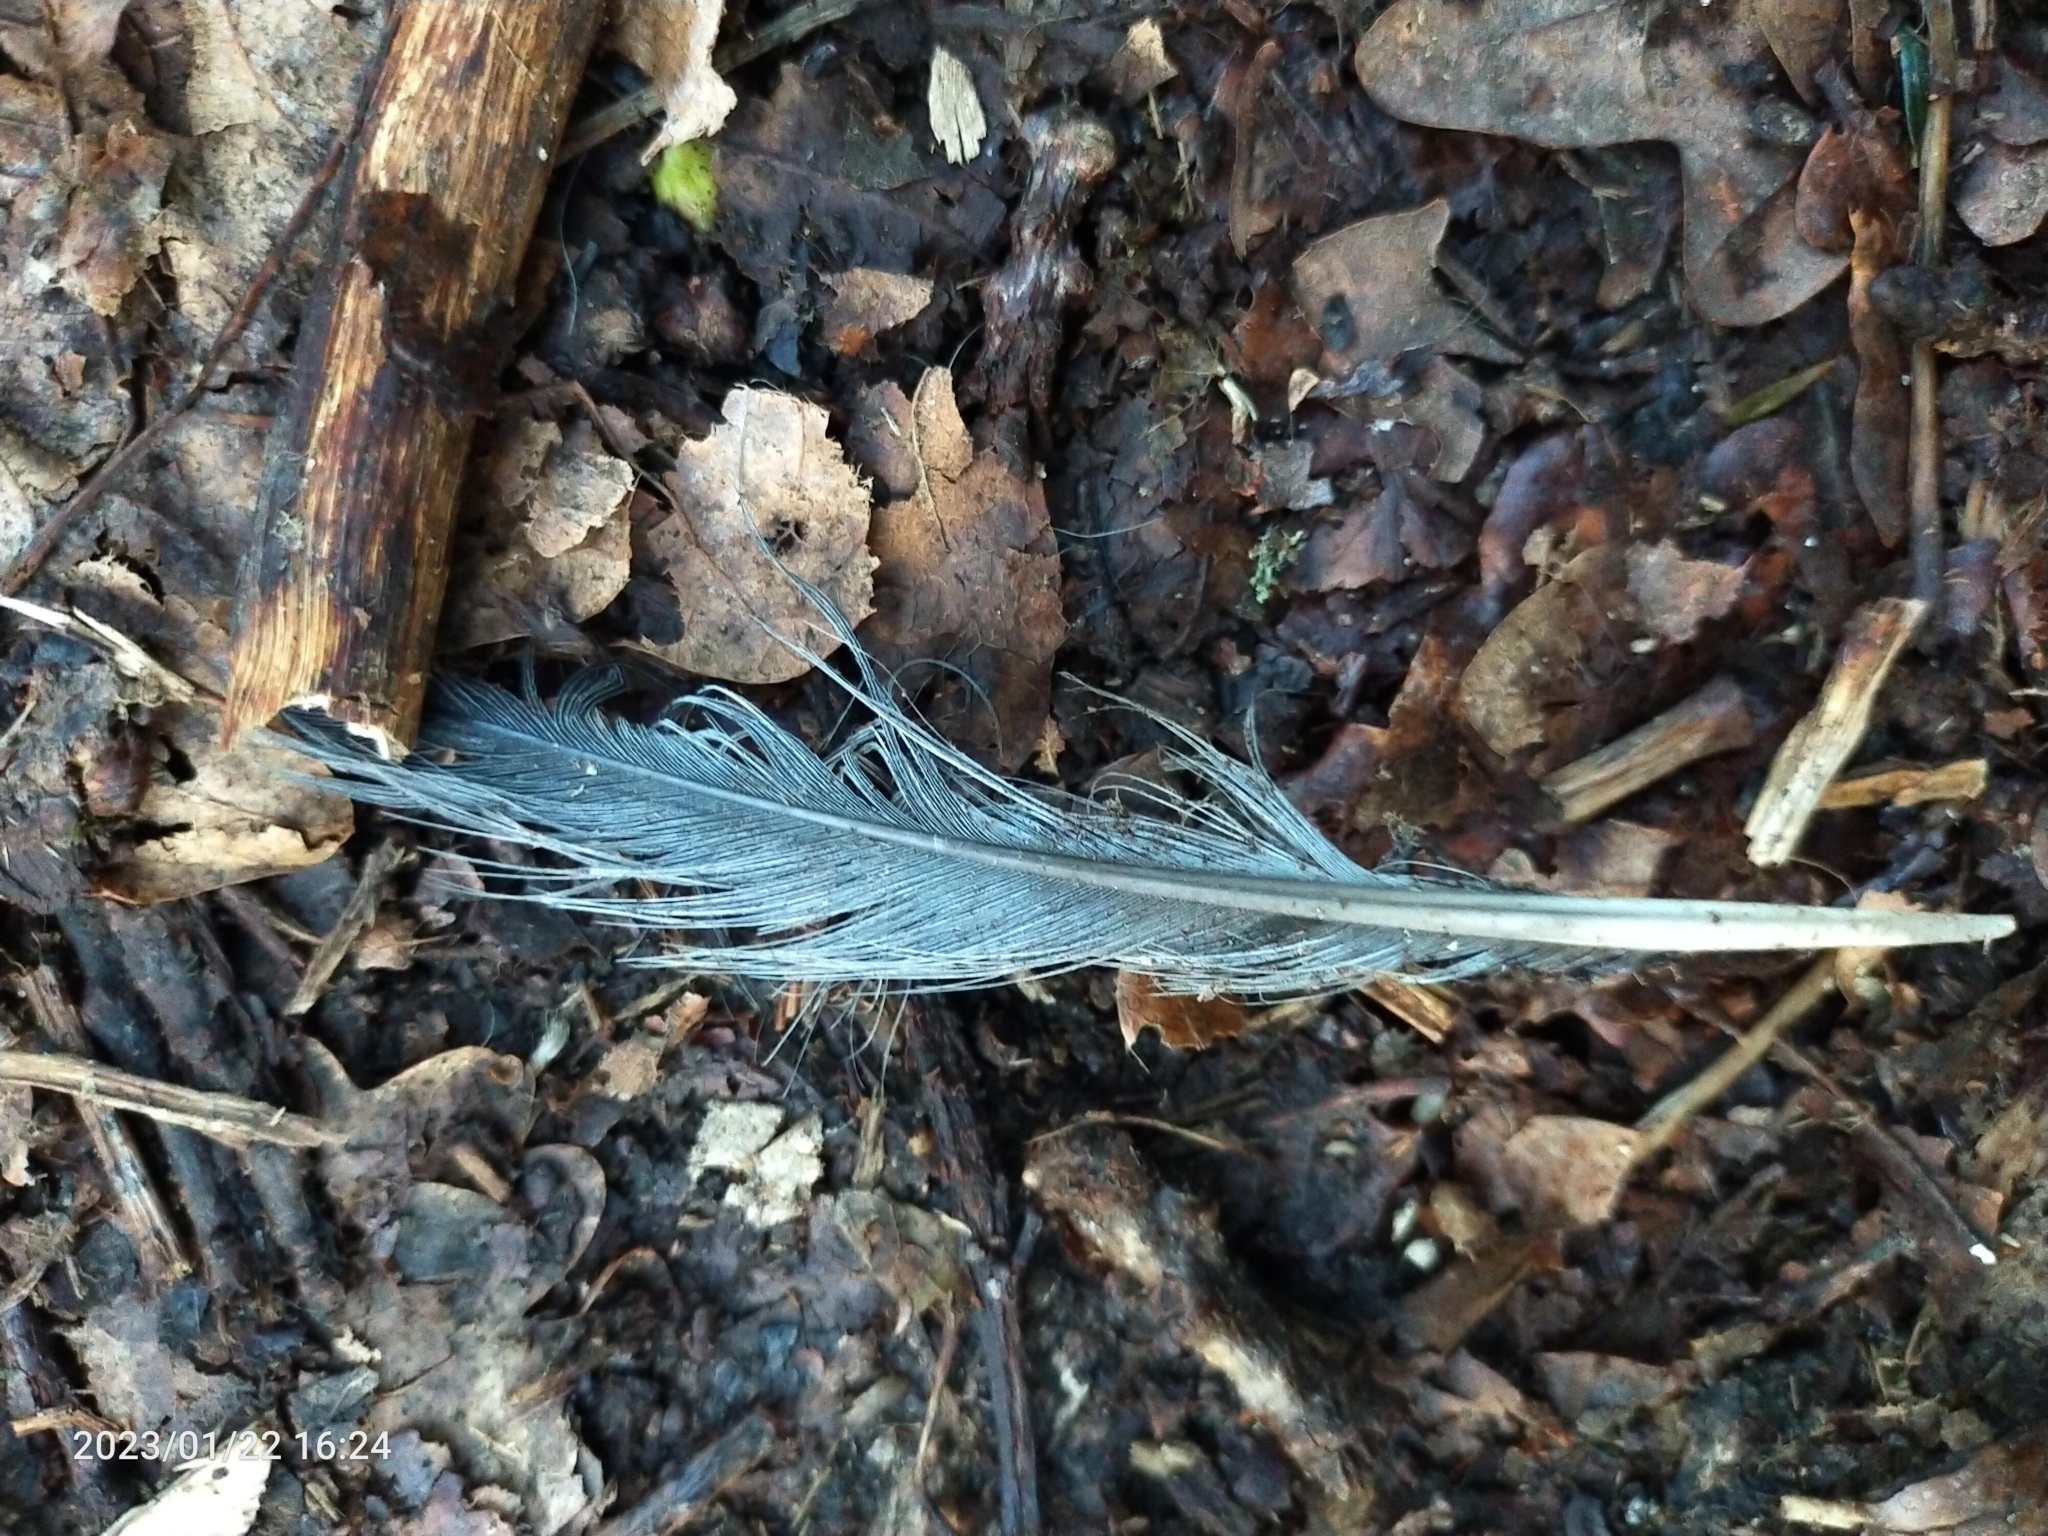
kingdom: Animalia
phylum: Chordata
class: Aves
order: Columbiformes
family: Columbidae
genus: Columba
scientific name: Columba palumbus
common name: Common wood pigeon
